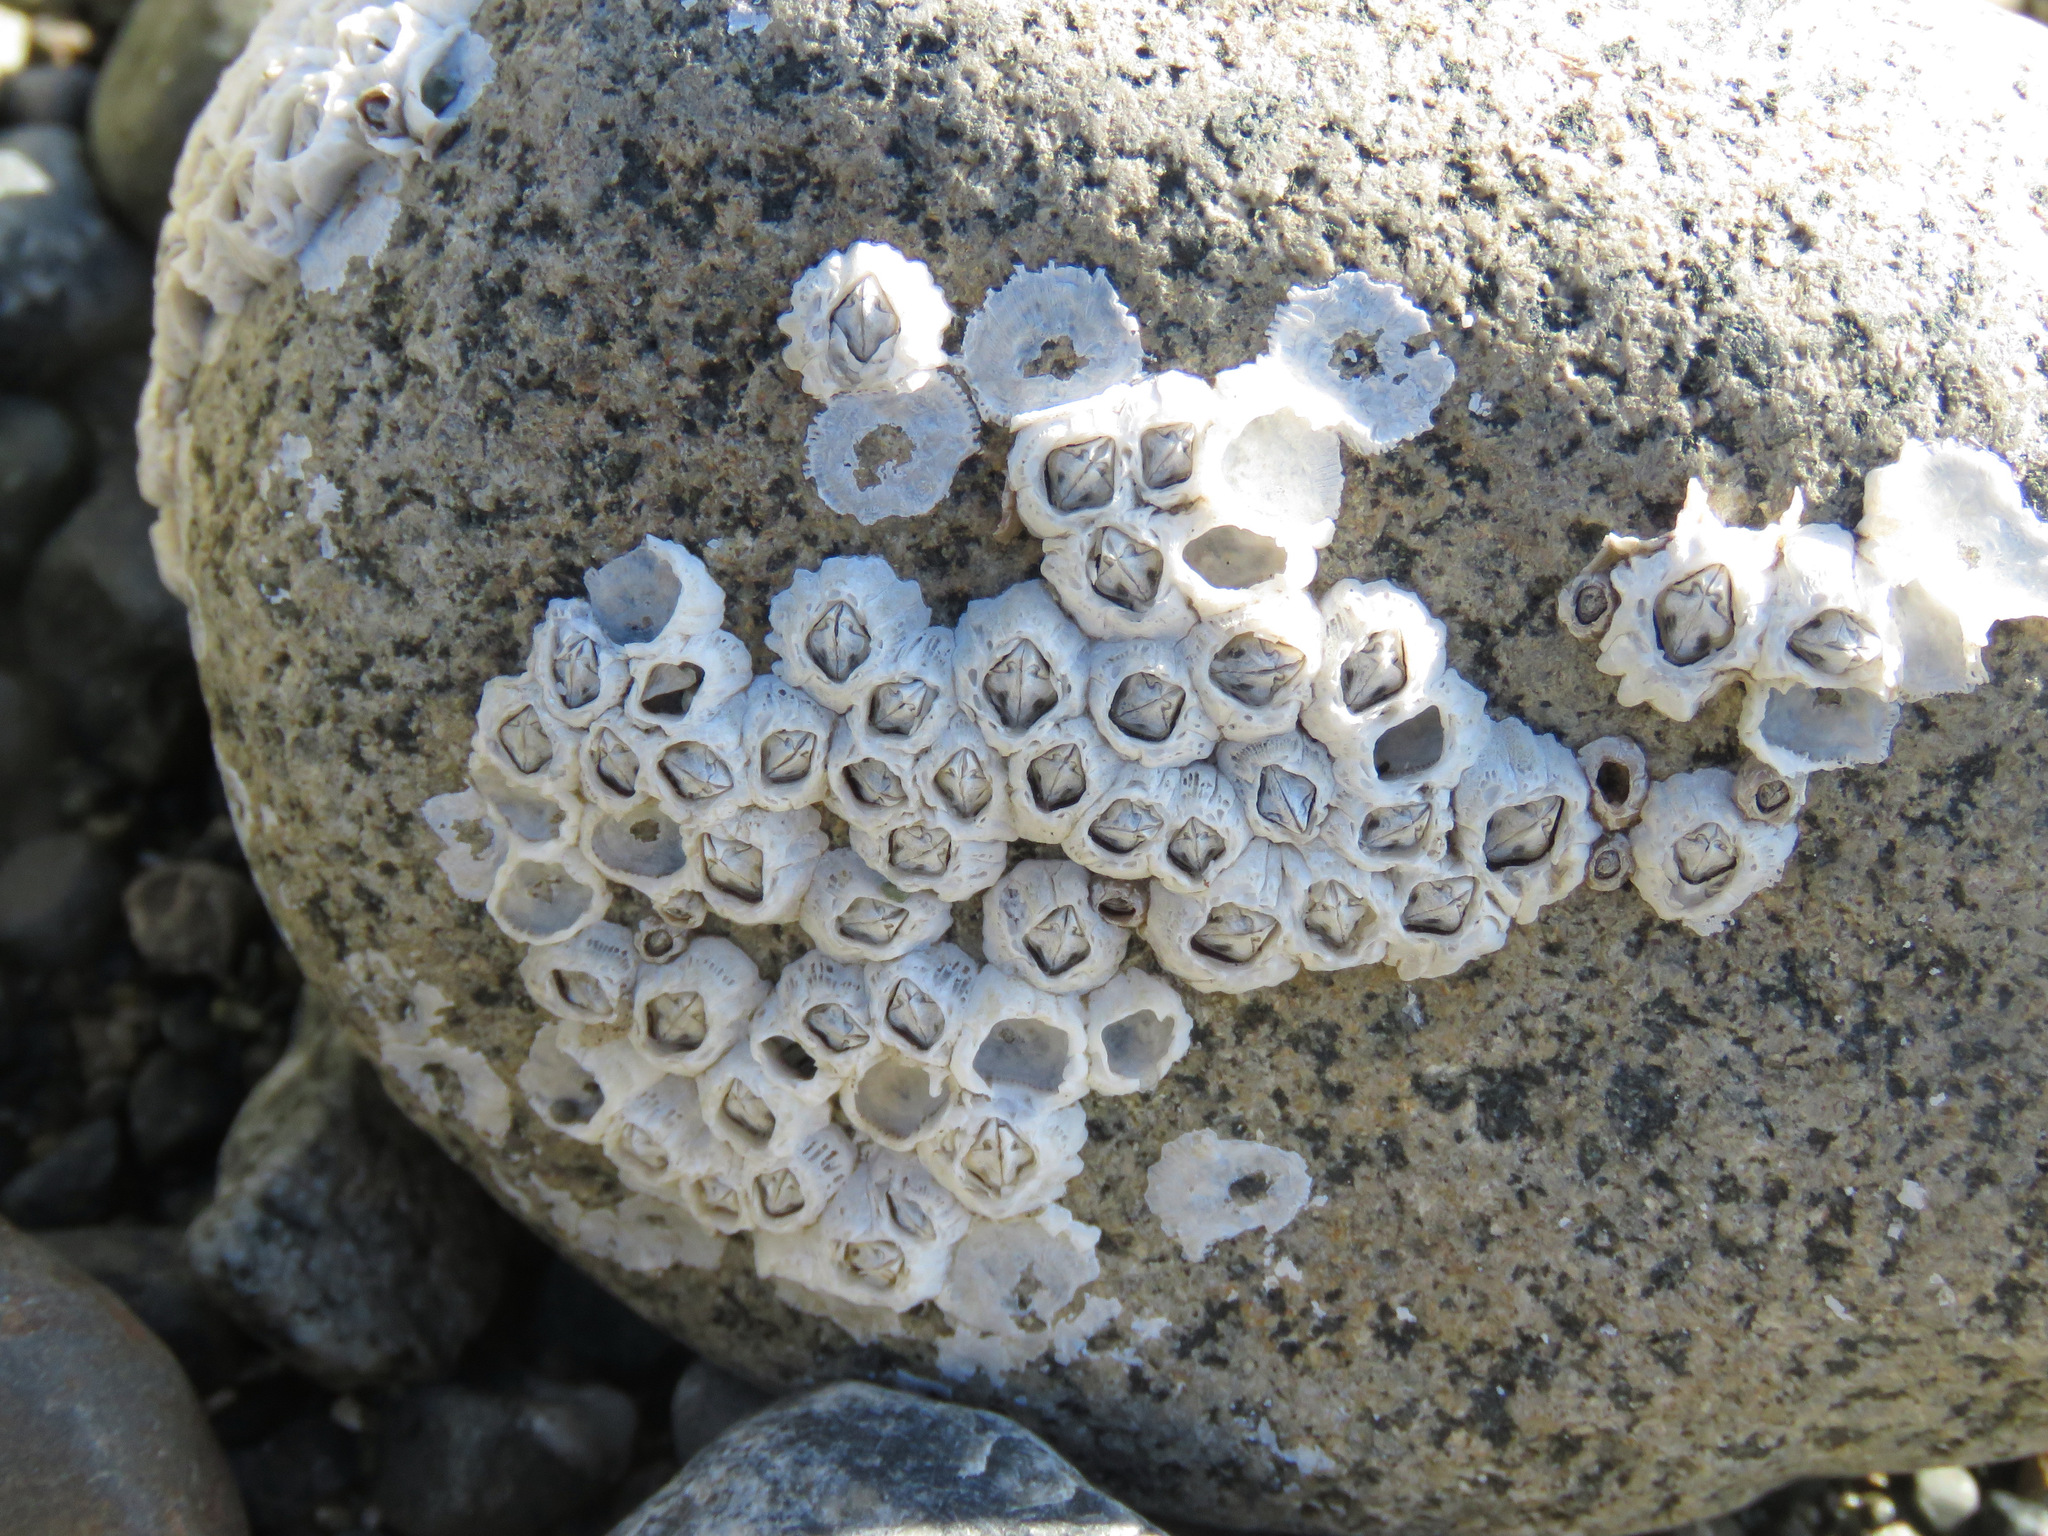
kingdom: Animalia
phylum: Arthropoda
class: Maxillopoda
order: Sessilia
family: Balanidae
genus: Balanus
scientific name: Balanus glandula
